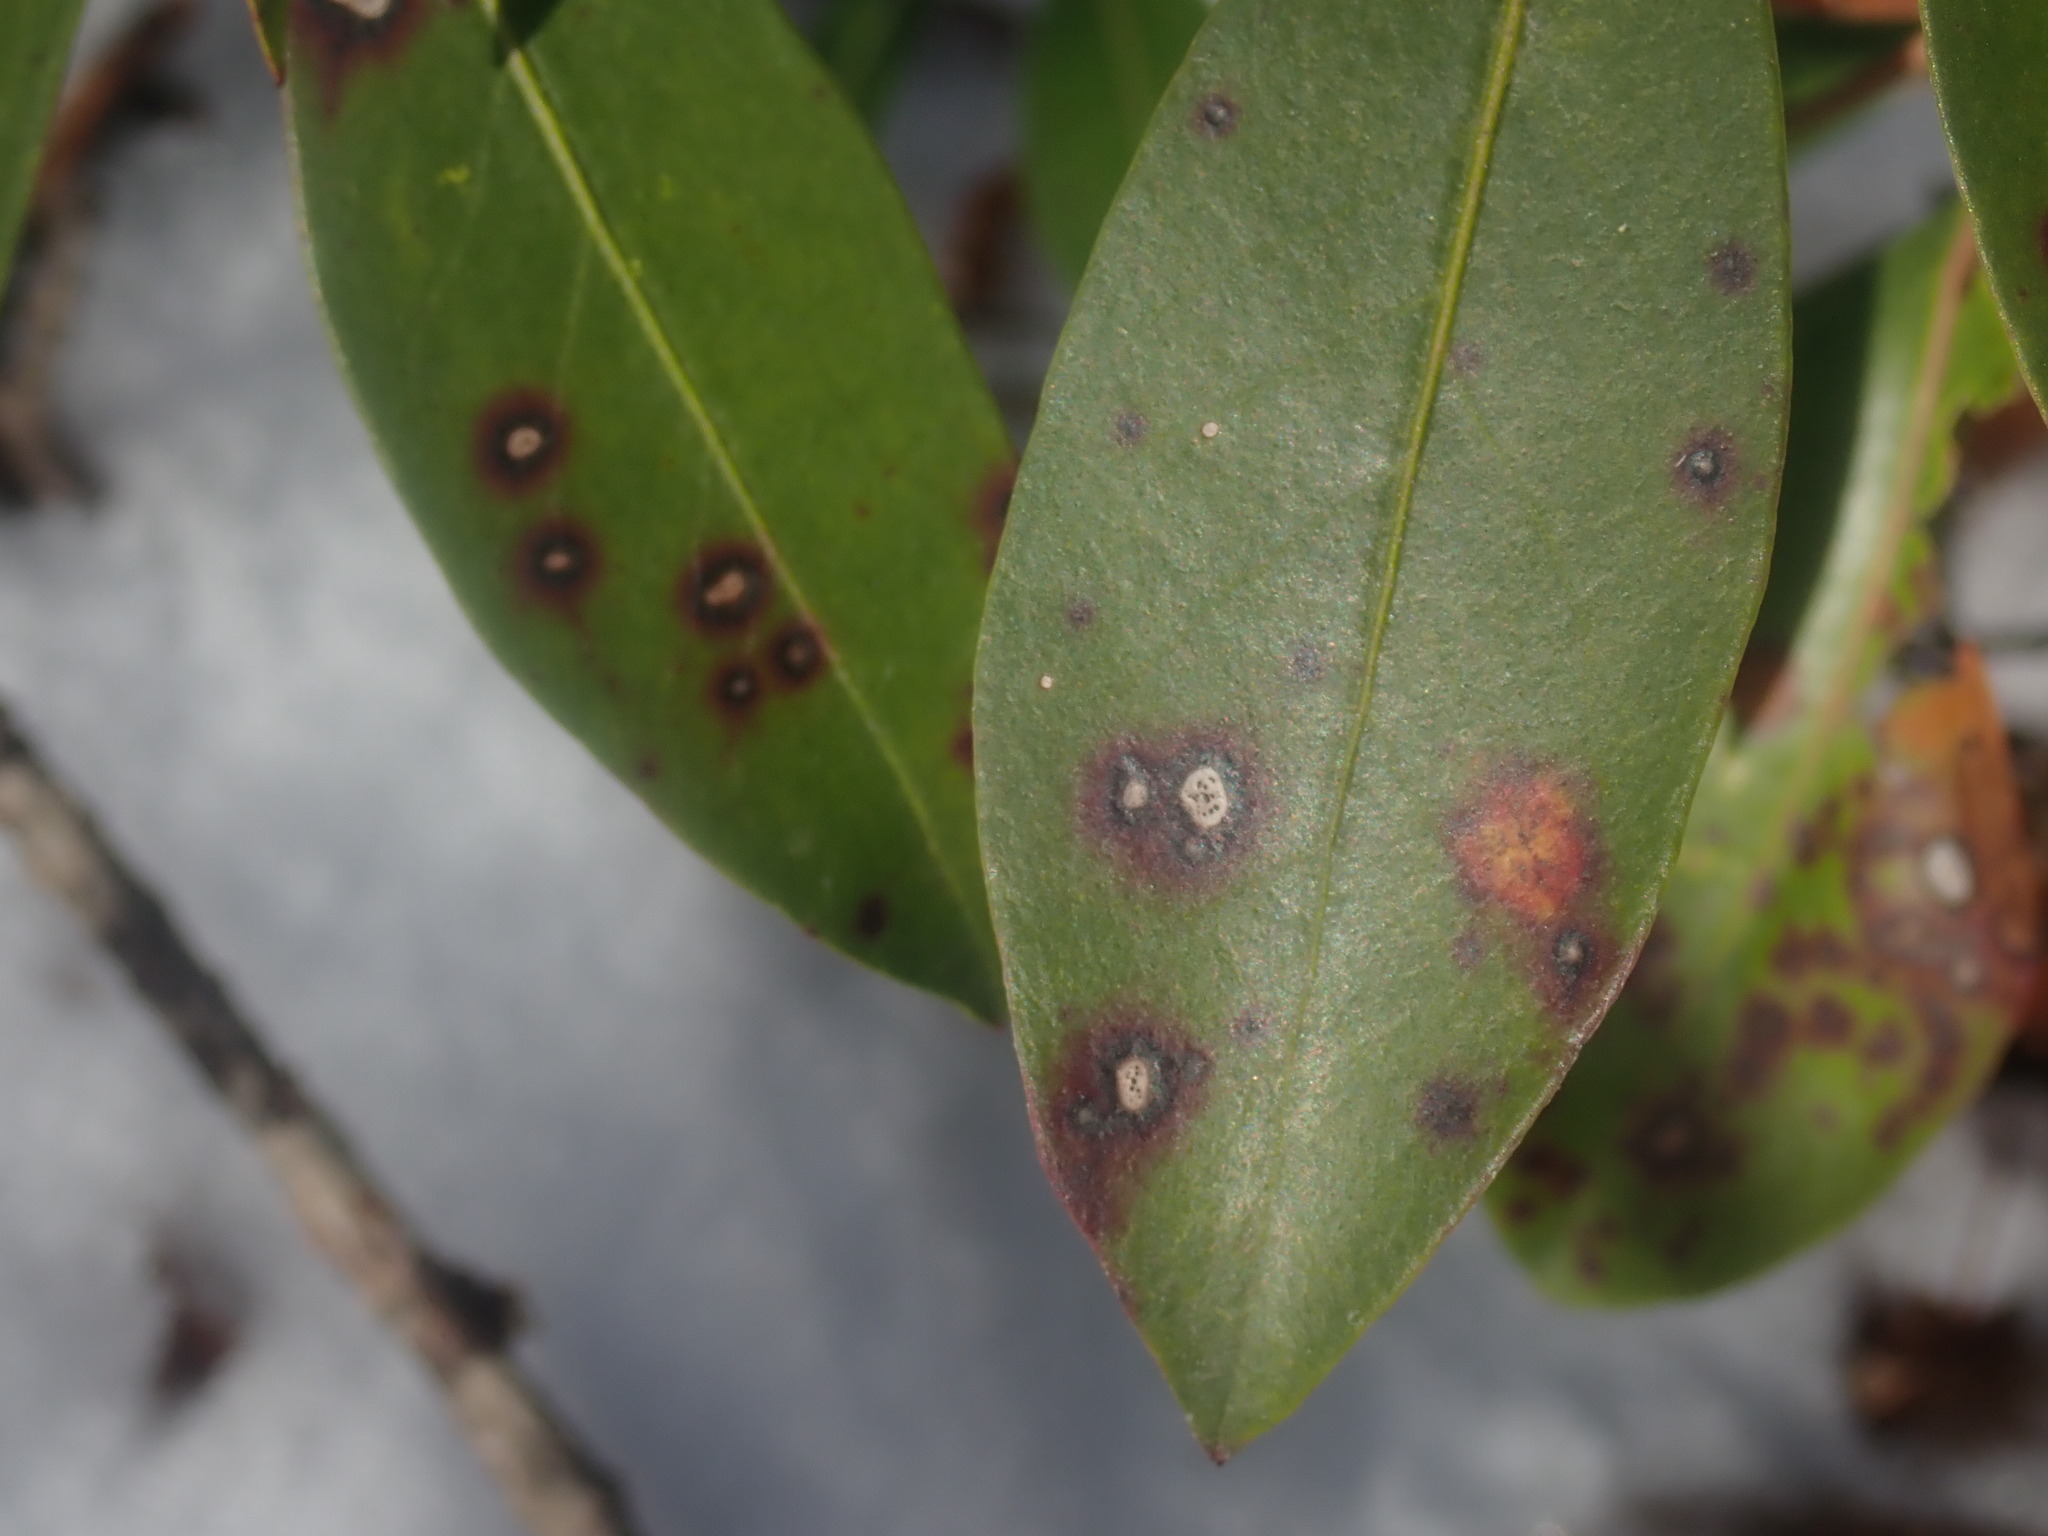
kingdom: Fungi
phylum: Ascomycota
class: Dothideomycetes
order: Mycosphaerellales
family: Mycosphaerellaceae
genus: Mycosphaerella
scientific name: Mycosphaerella colorata
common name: Mountain laurel leaf spot
